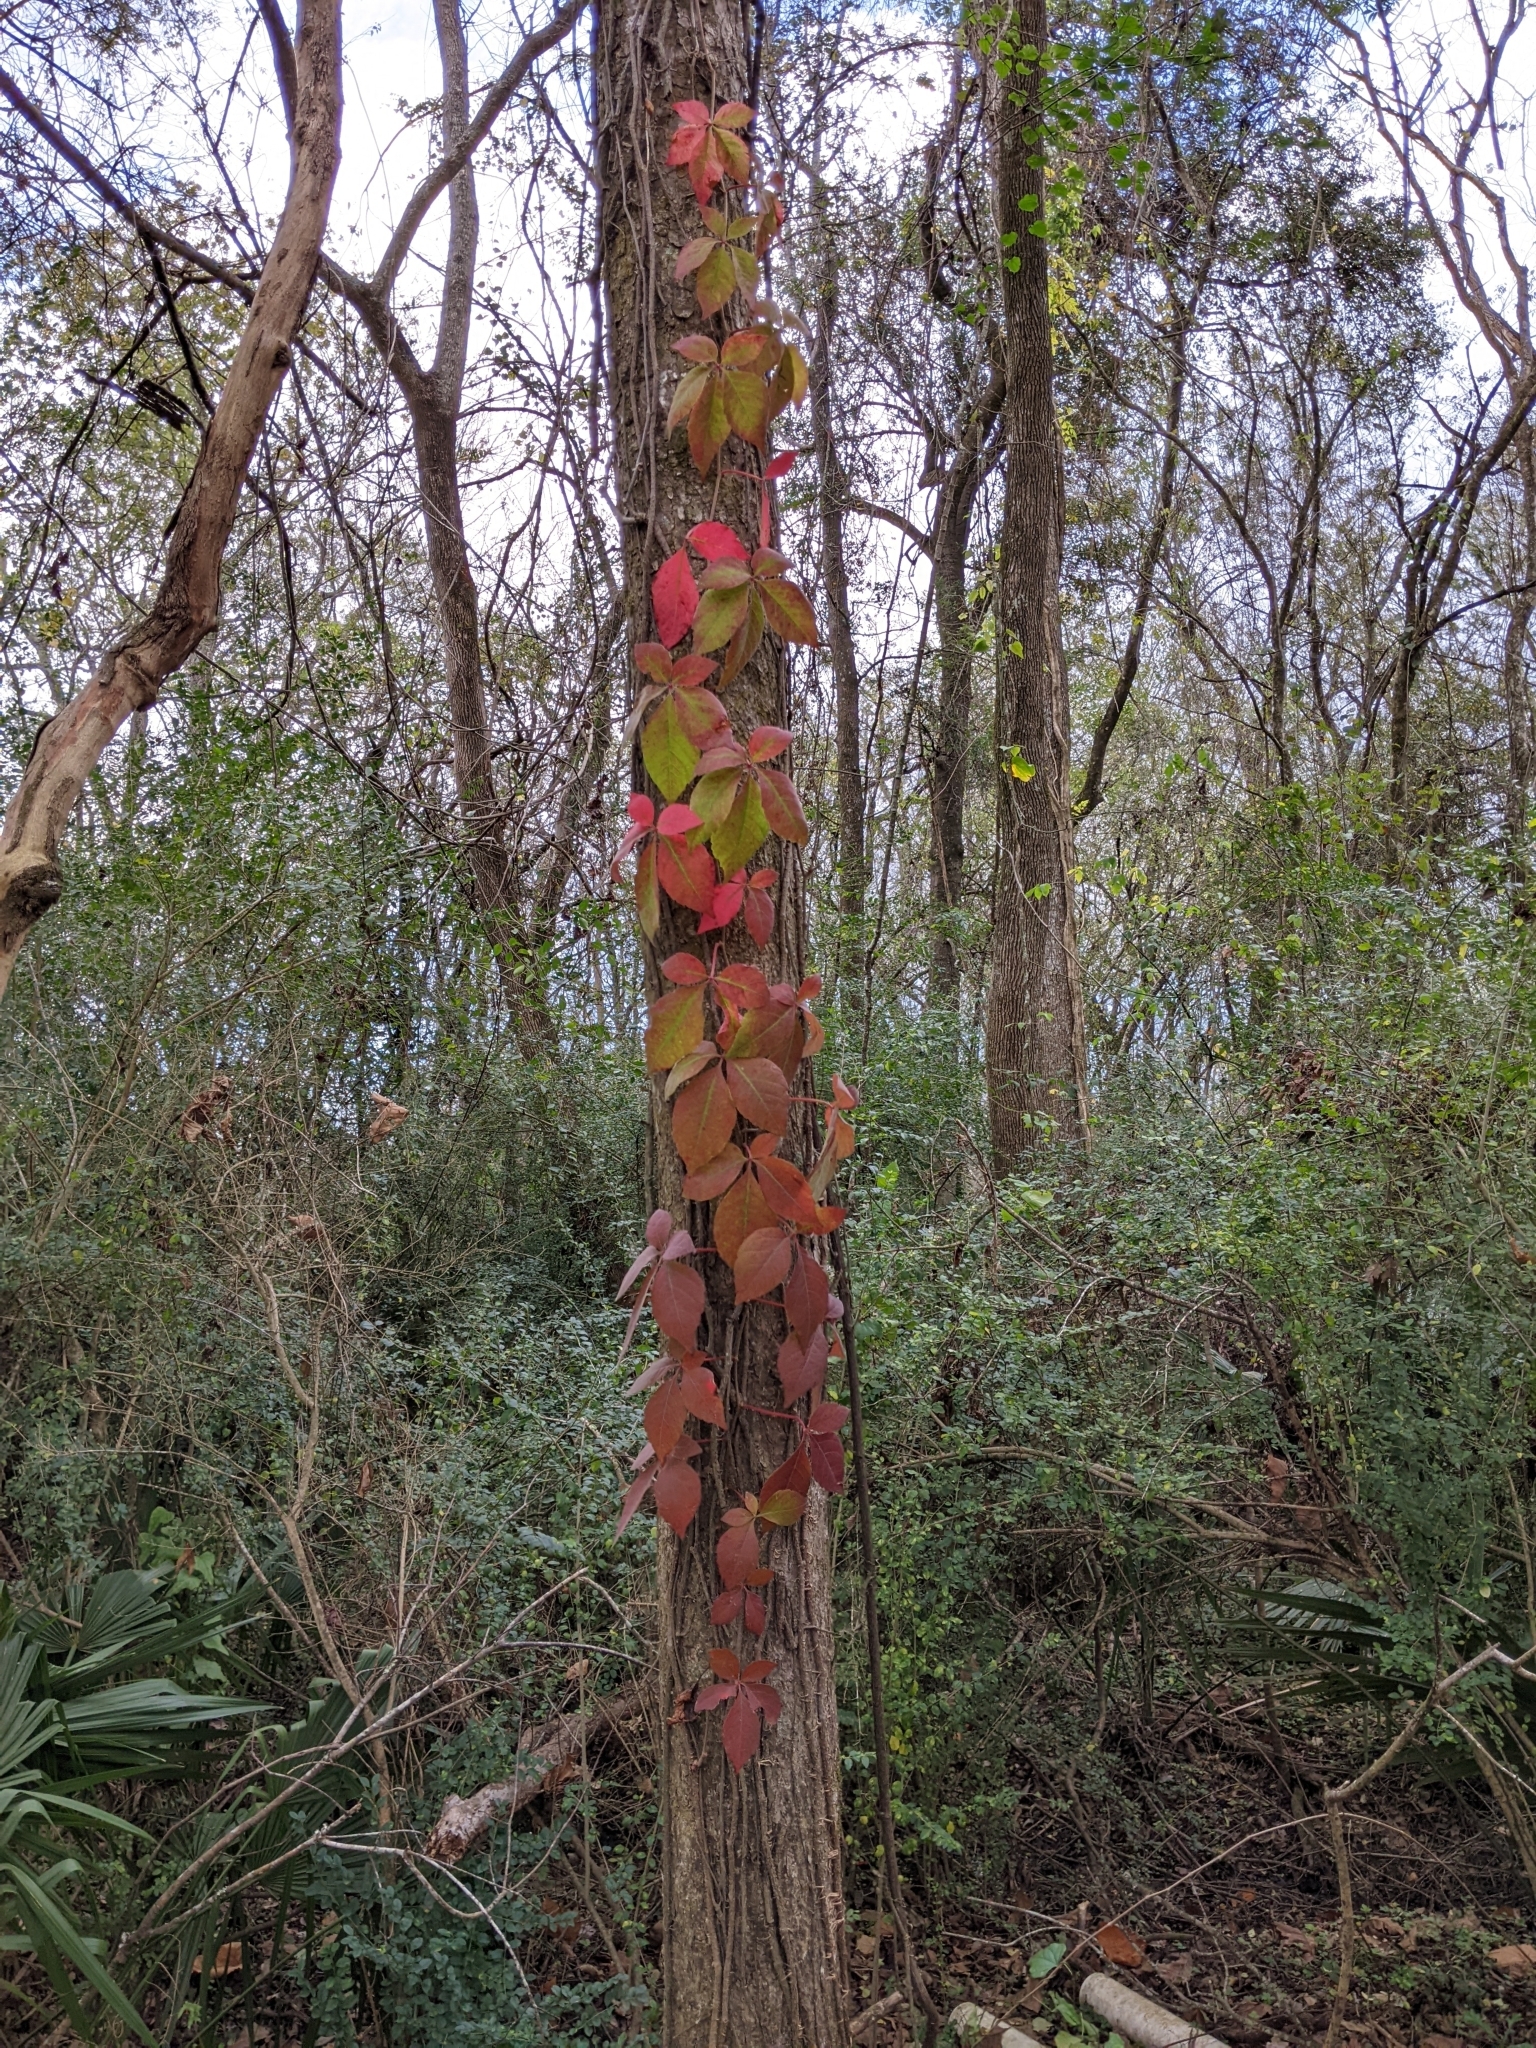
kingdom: Plantae
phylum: Tracheophyta
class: Magnoliopsida
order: Vitales
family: Vitaceae
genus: Parthenocissus
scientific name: Parthenocissus quinquefolia
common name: Virginia-creeper
